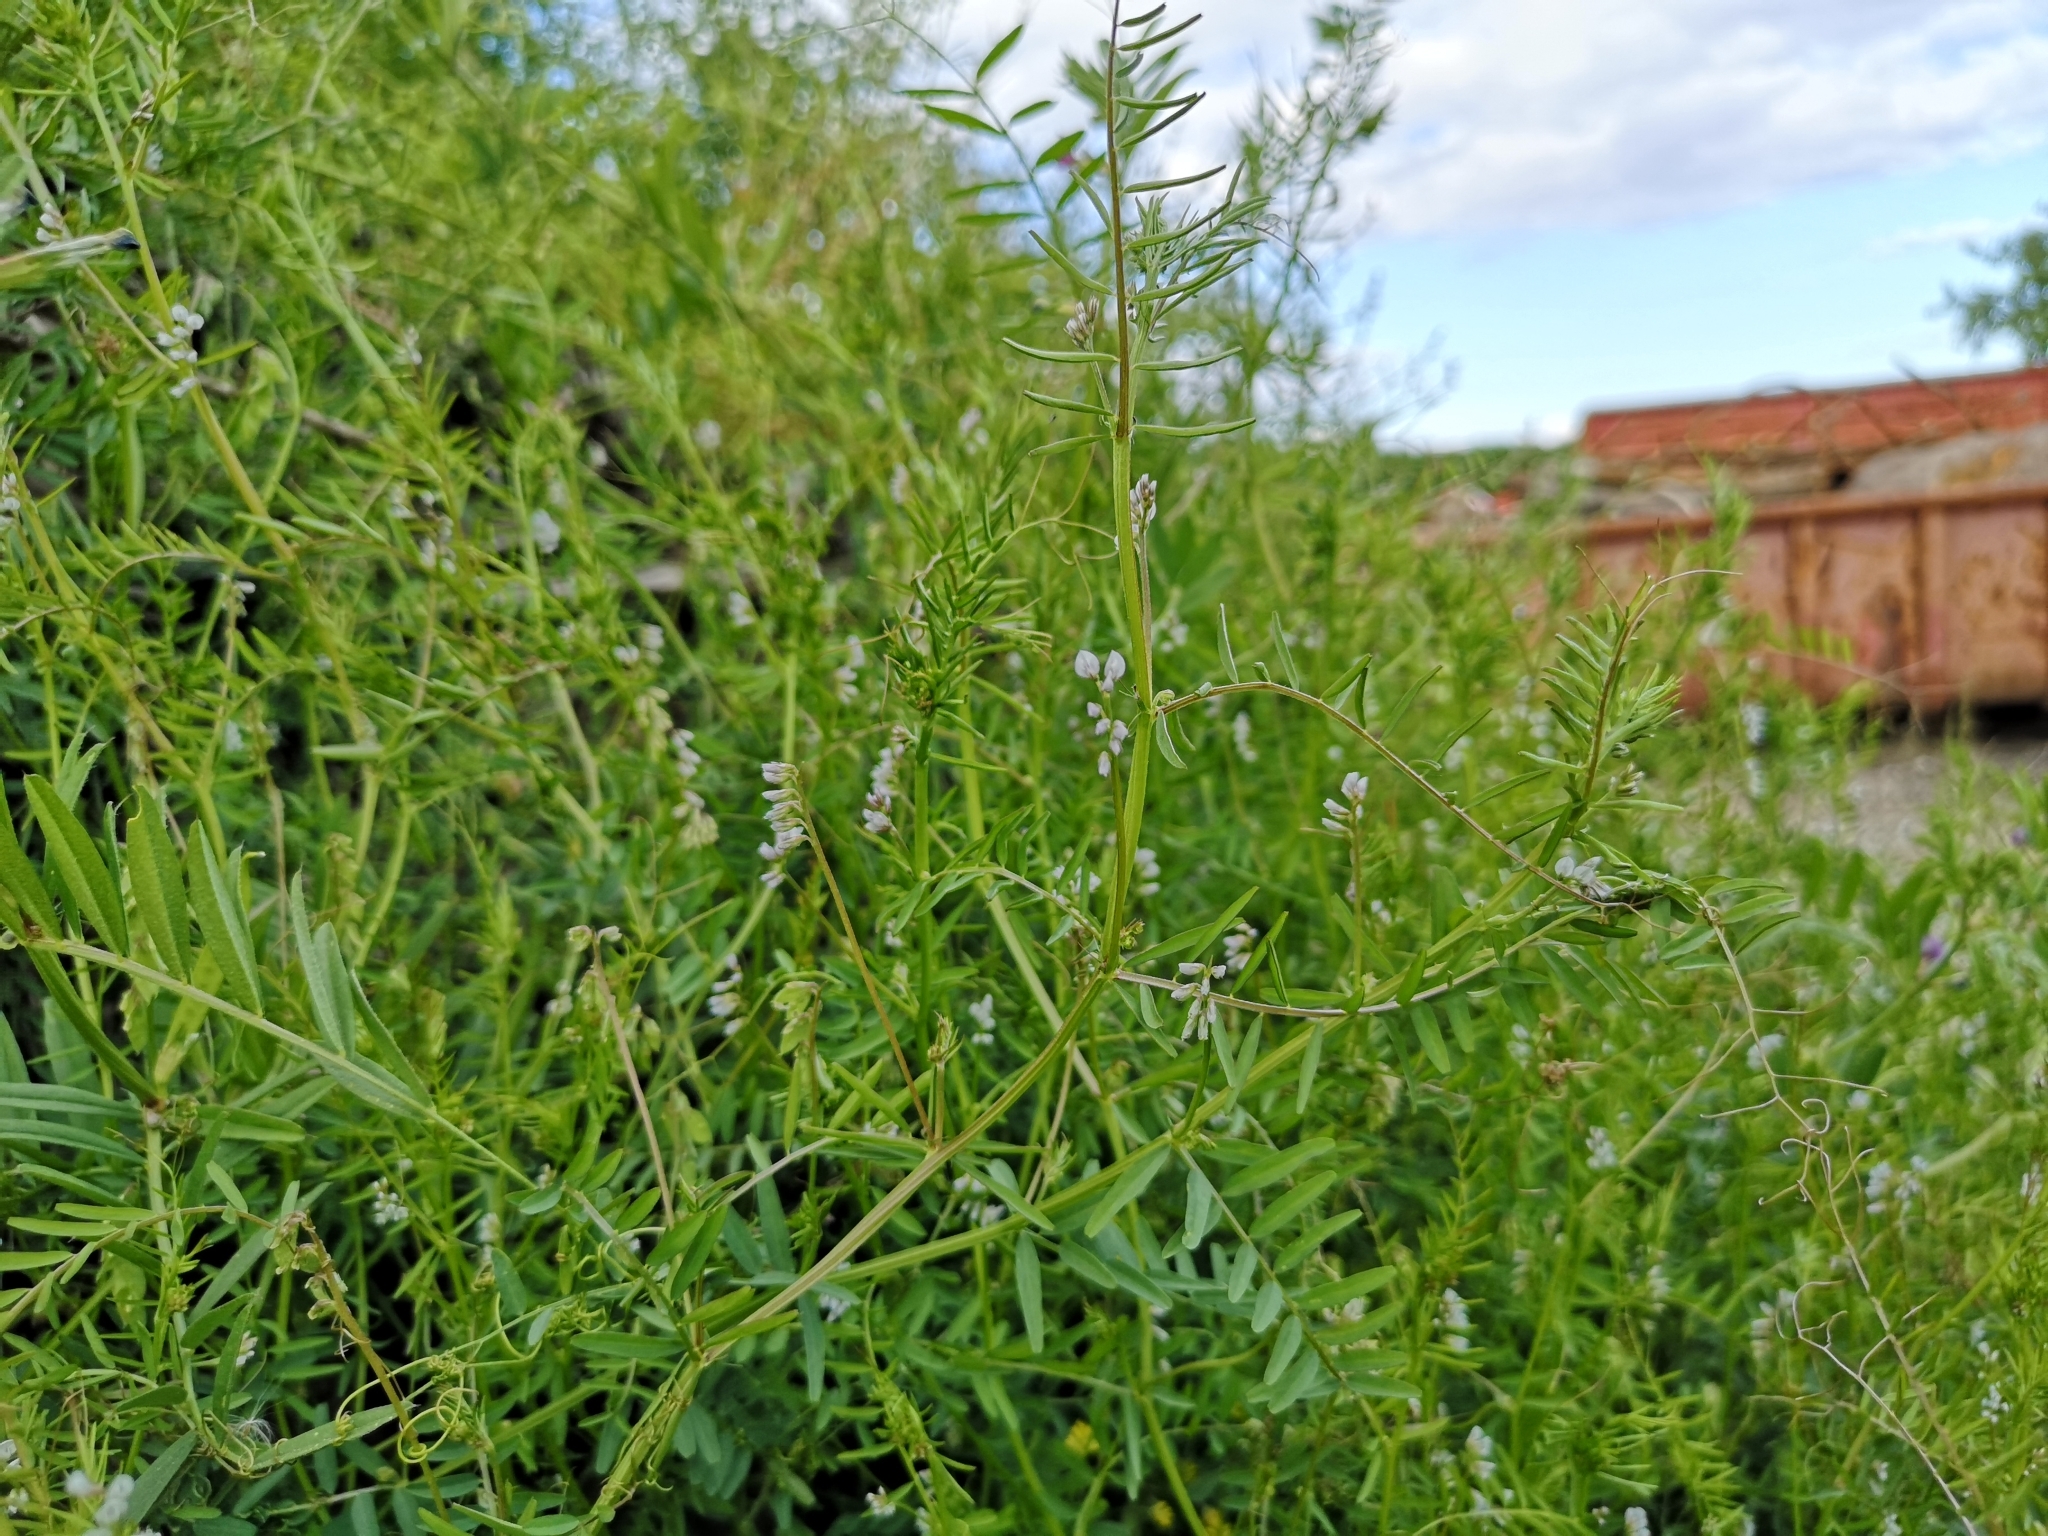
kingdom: Plantae
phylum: Tracheophyta
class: Magnoliopsida
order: Fabales
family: Fabaceae
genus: Vicia
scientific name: Vicia hirsuta
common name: Tiny vetch
